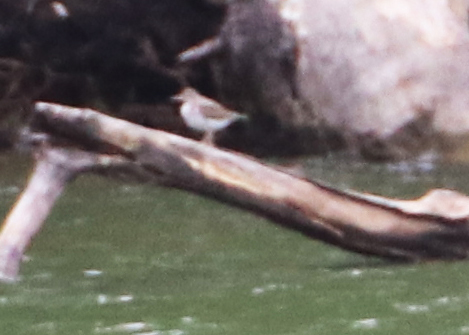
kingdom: Animalia
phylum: Chordata
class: Aves
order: Charadriiformes
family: Scolopacidae
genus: Actitis
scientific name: Actitis macularius
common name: Spotted sandpiper
